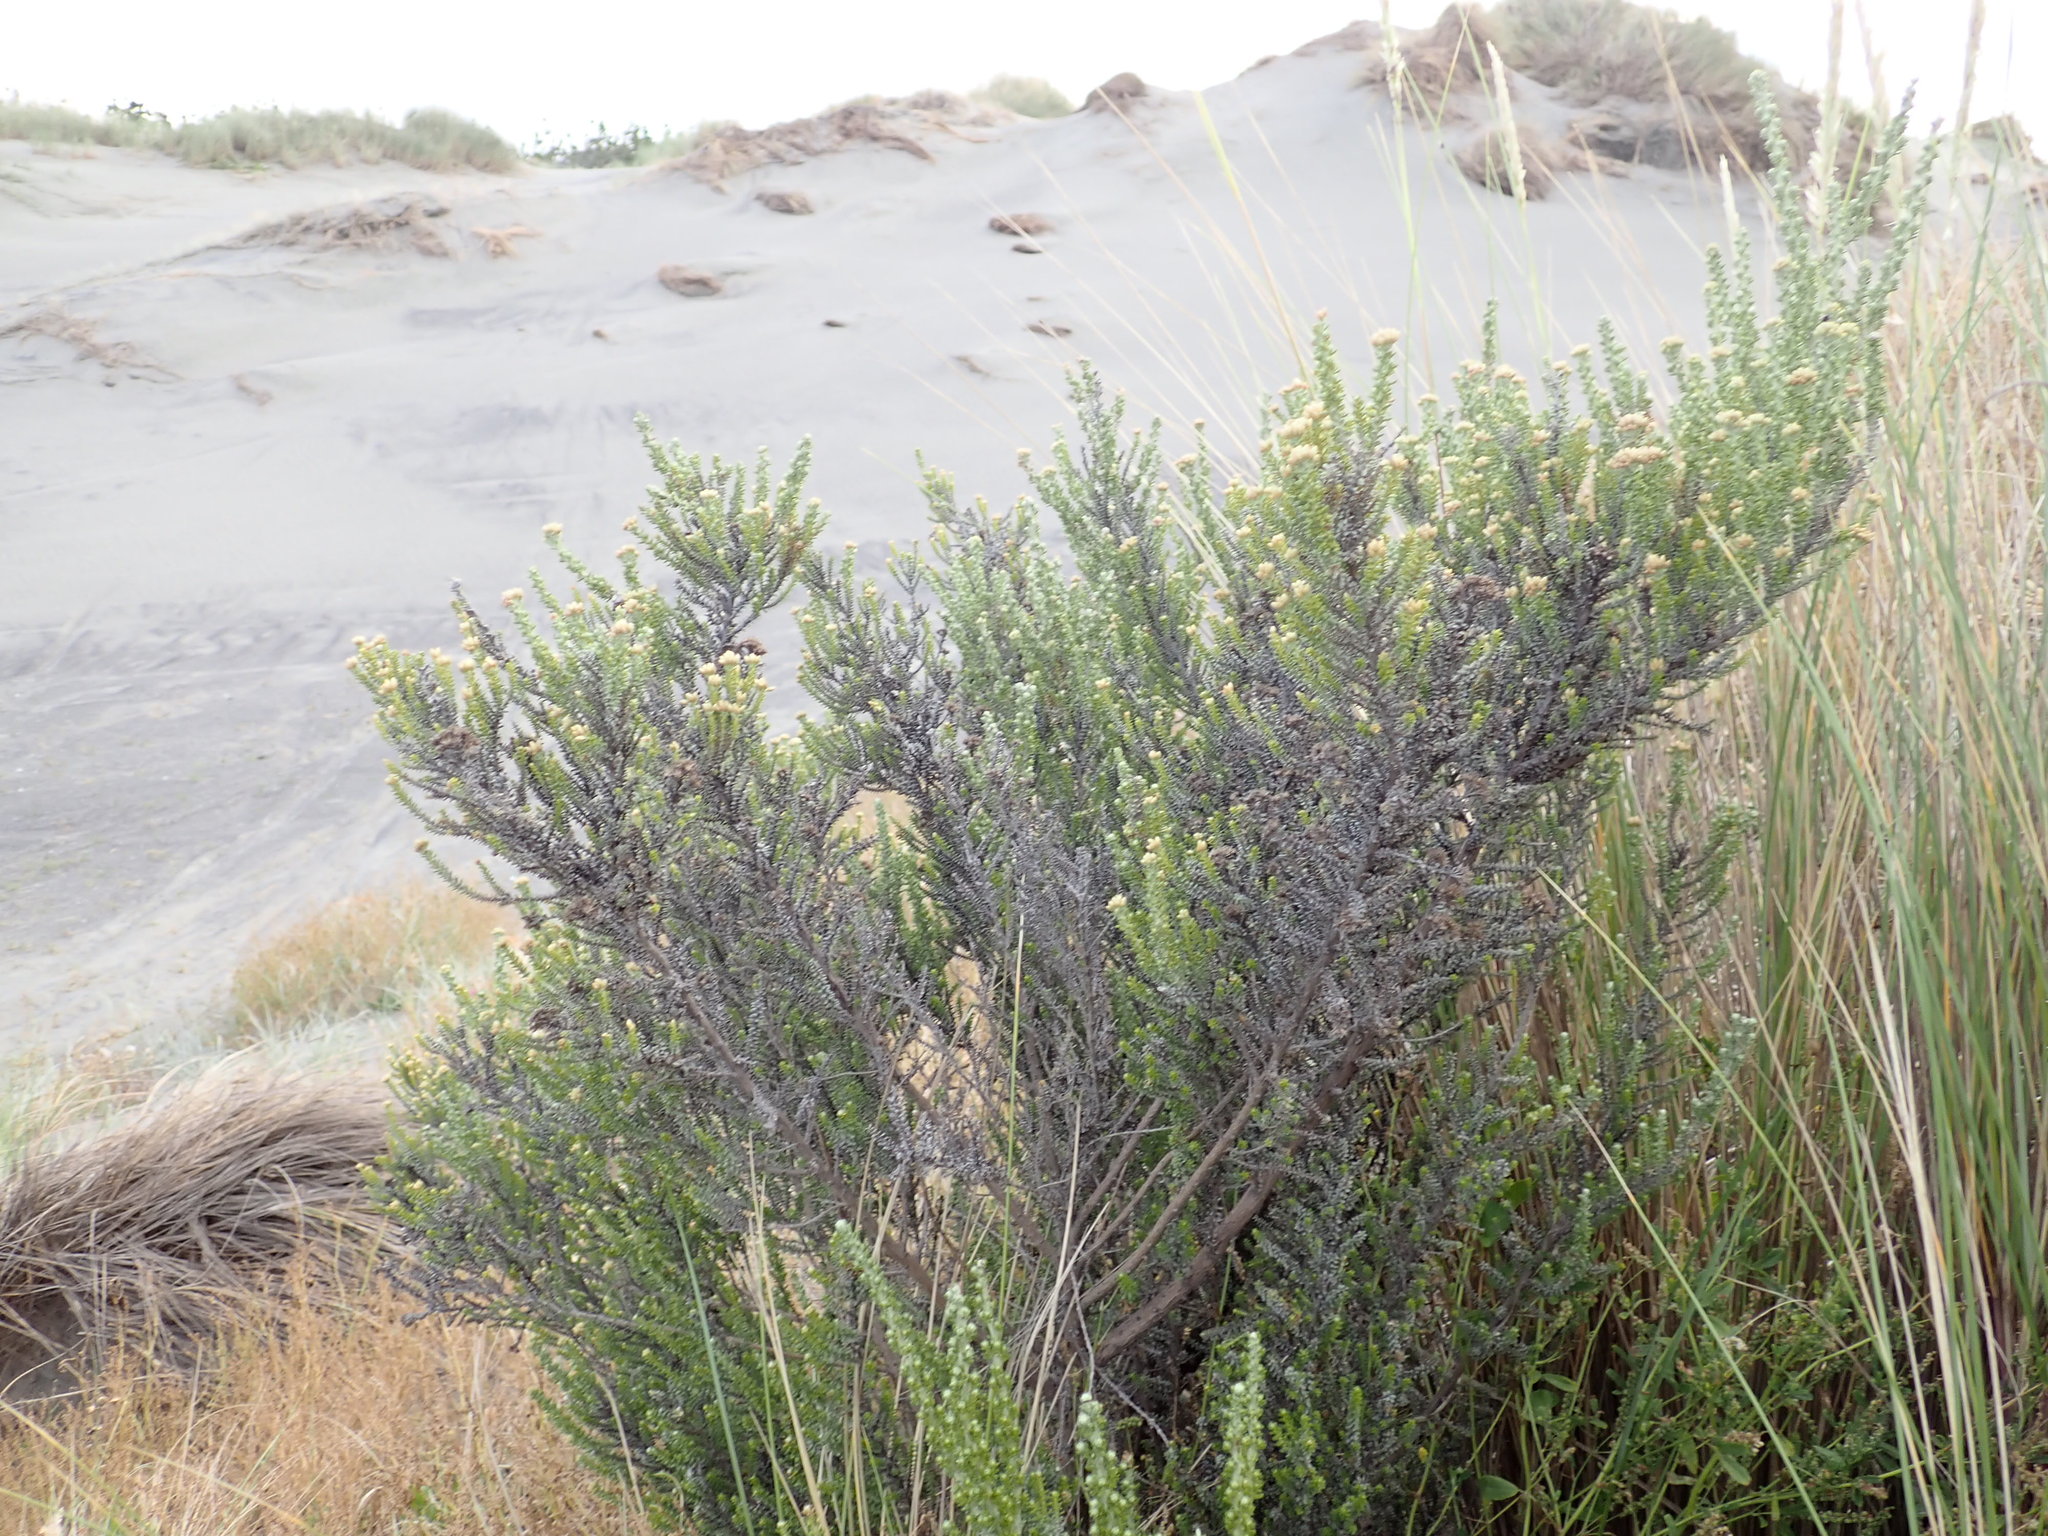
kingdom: Plantae
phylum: Tracheophyta
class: Magnoliopsida
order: Asterales
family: Asteraceae
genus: Ozothamnus
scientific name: Ozothamnus leptophyllus
